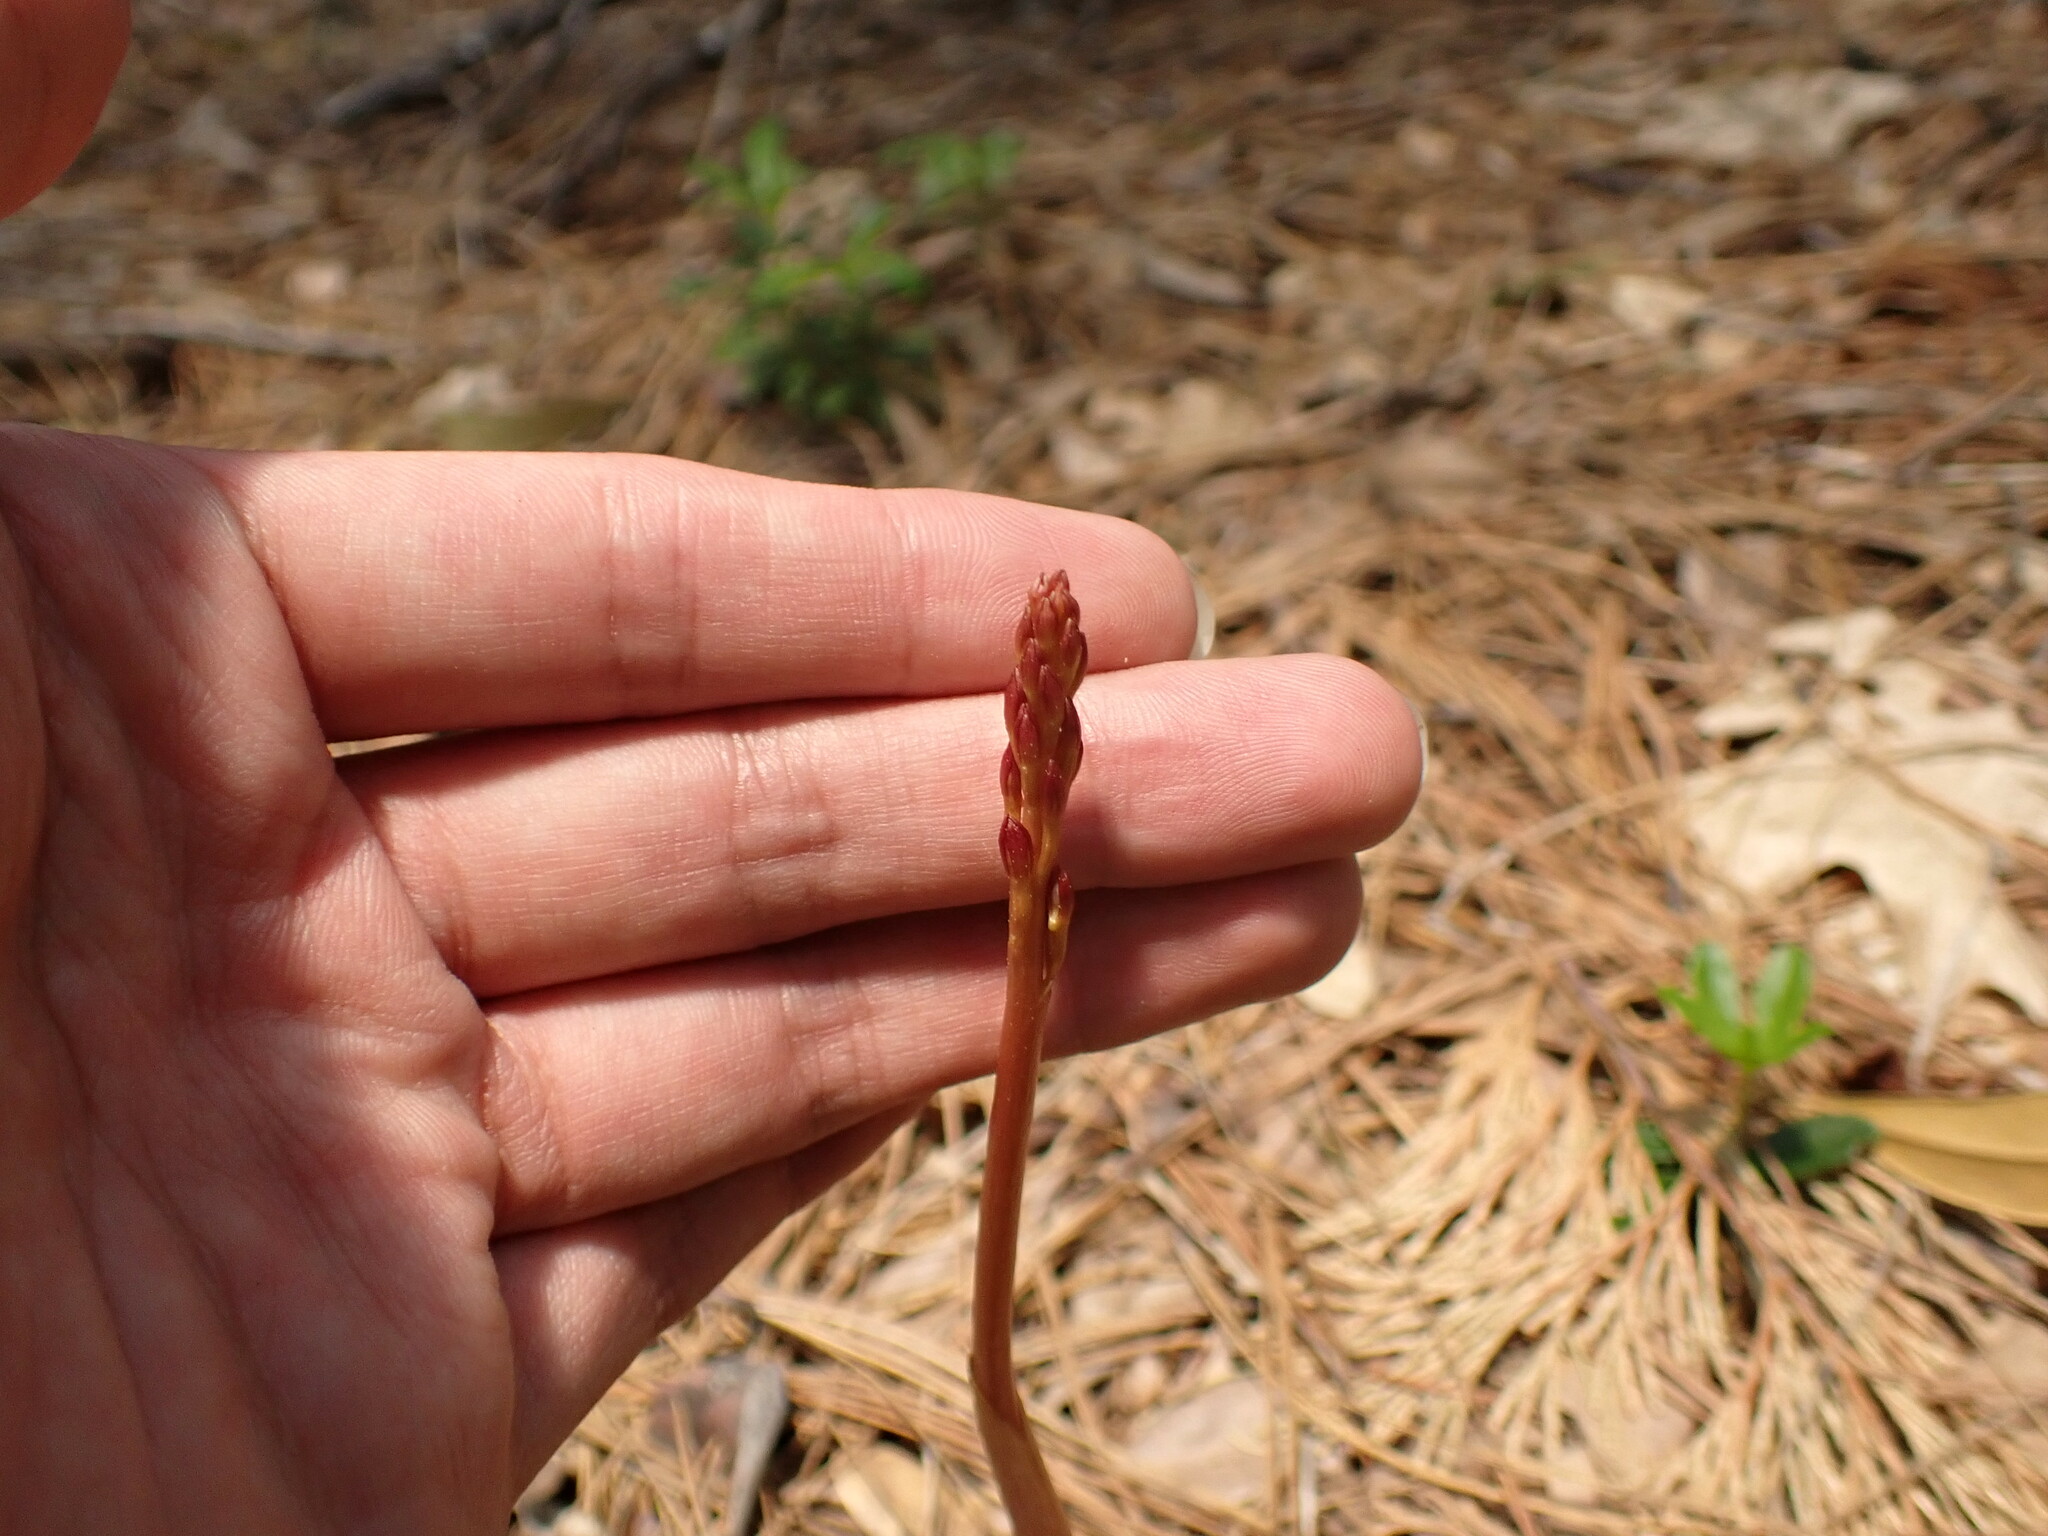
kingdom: Plantae
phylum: Tracheophyta
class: Liliopsida
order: Asparagales
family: Orchidaceae
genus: Corallorhiza
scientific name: Corallorhiza maculata
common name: Spotted coralroot
